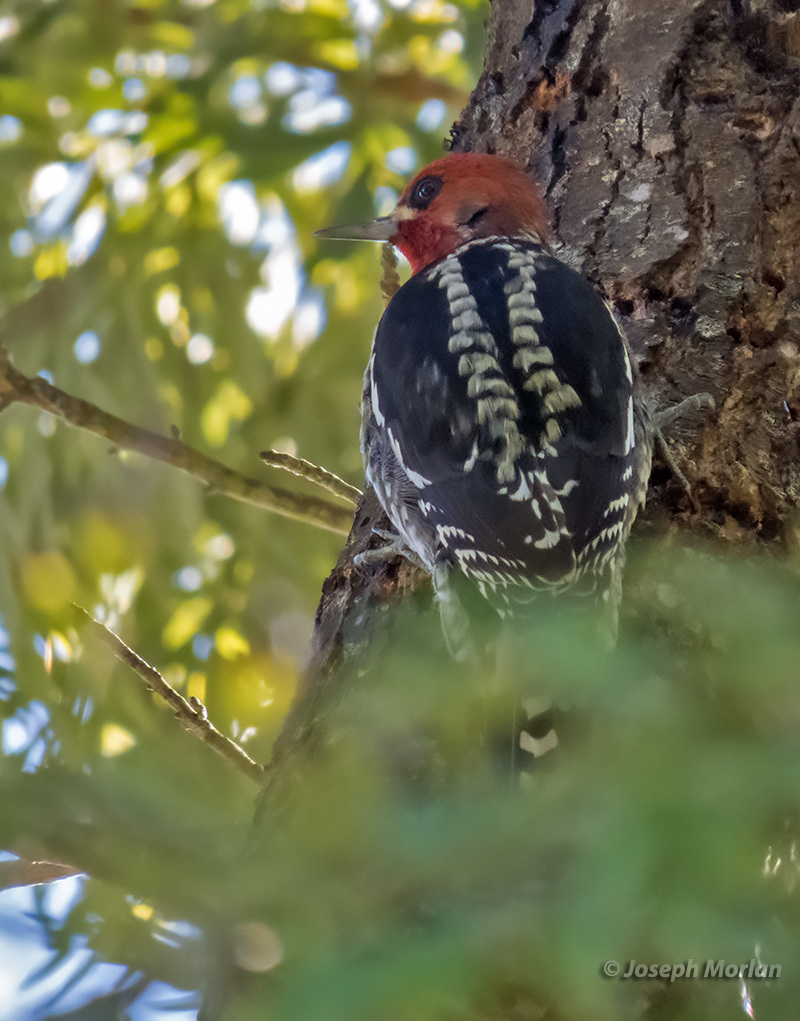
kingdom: Animalia
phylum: Chordata
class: Aves
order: Piciformes
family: Picidae
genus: Sphyrapicus
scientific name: Sphyrapicus ruber
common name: Red-breasted sapsucker
